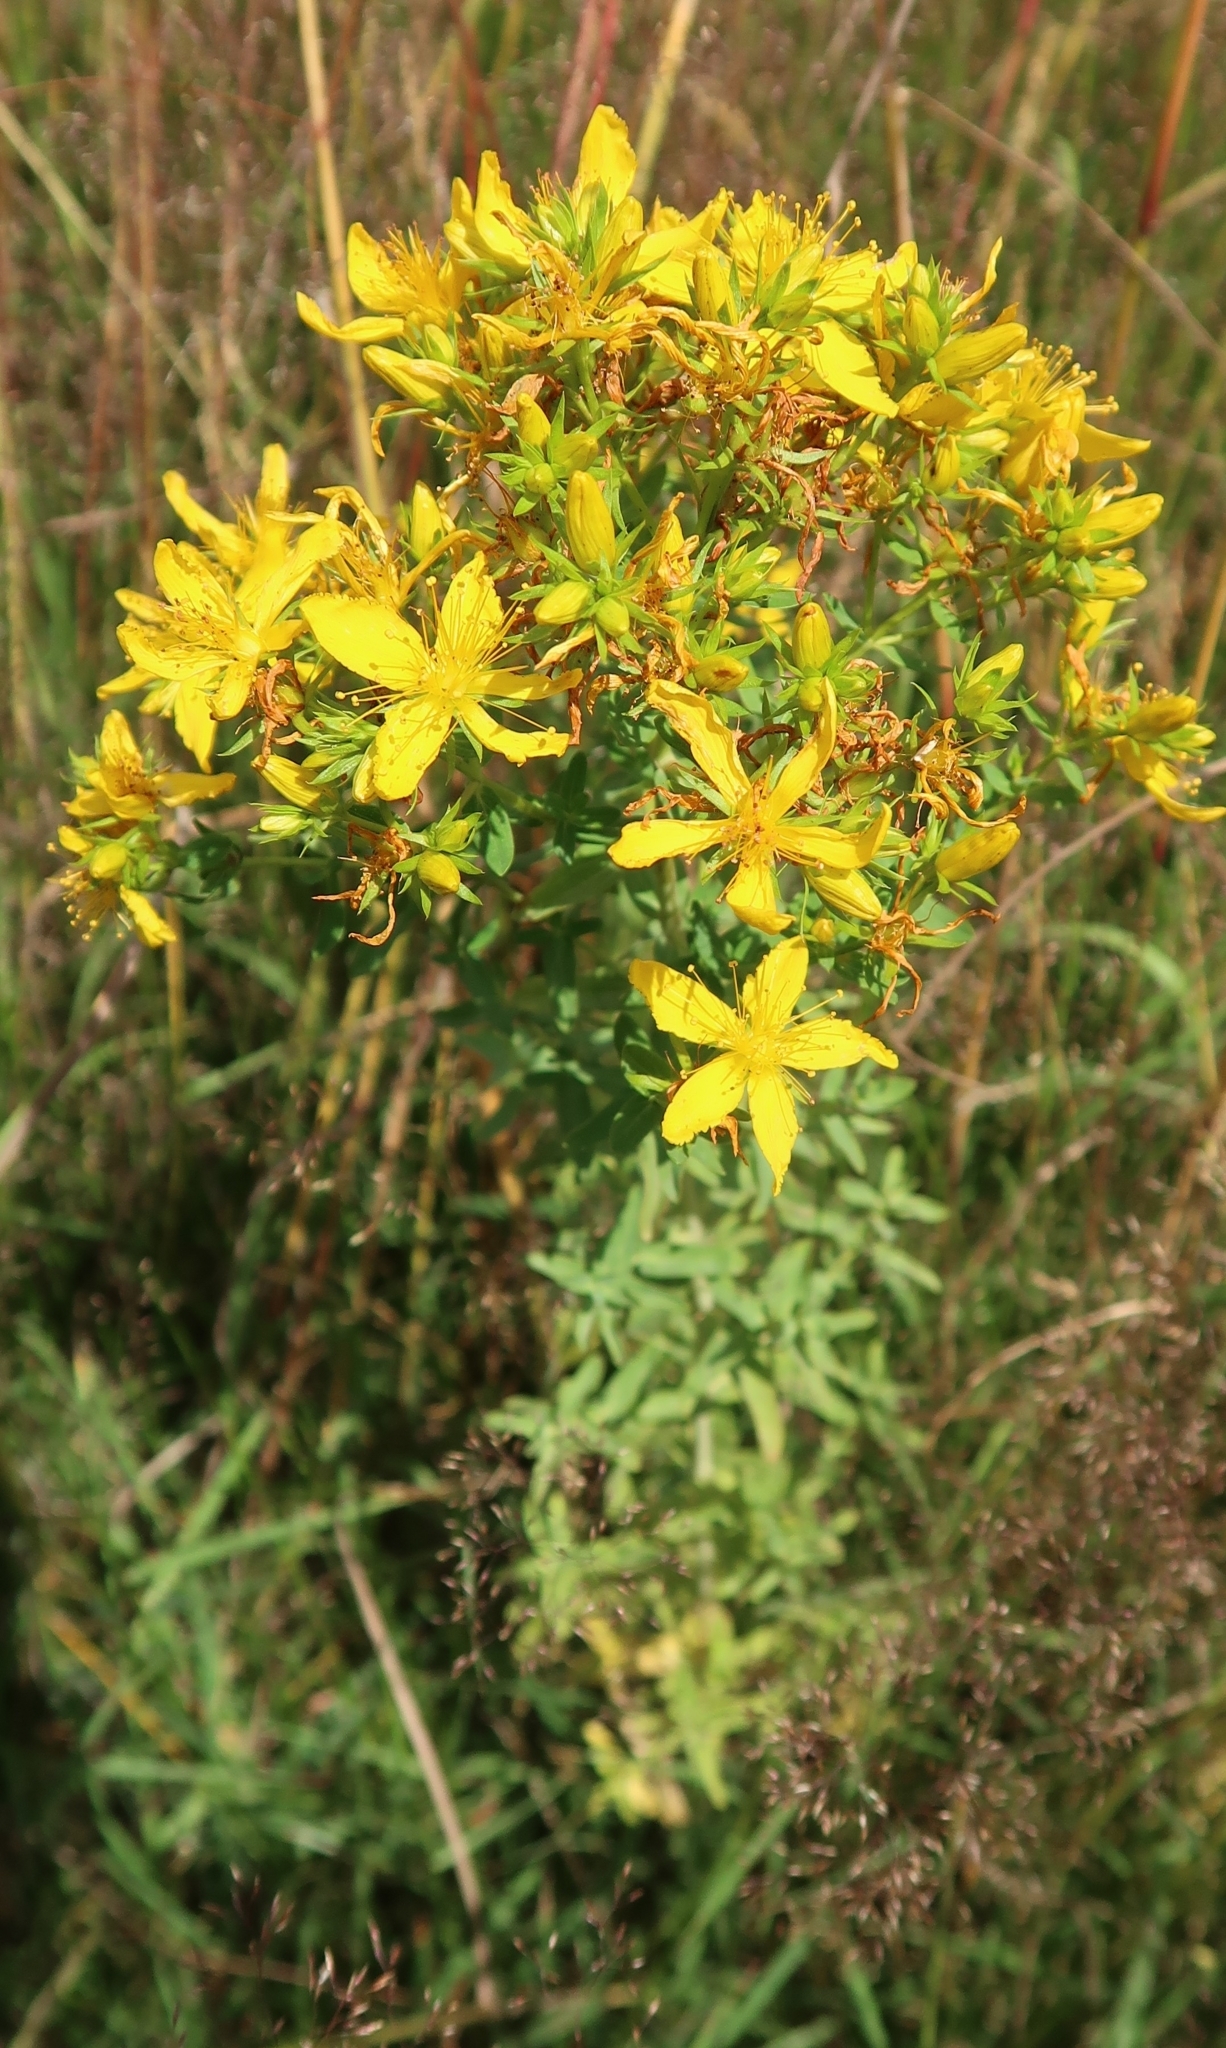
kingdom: Plantae
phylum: Tracheophyta
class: Magnoliopsida
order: Malpighiales
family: Hypericaceae
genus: Hypericum
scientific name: Hypericum perforatum
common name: Common st. johnswort
